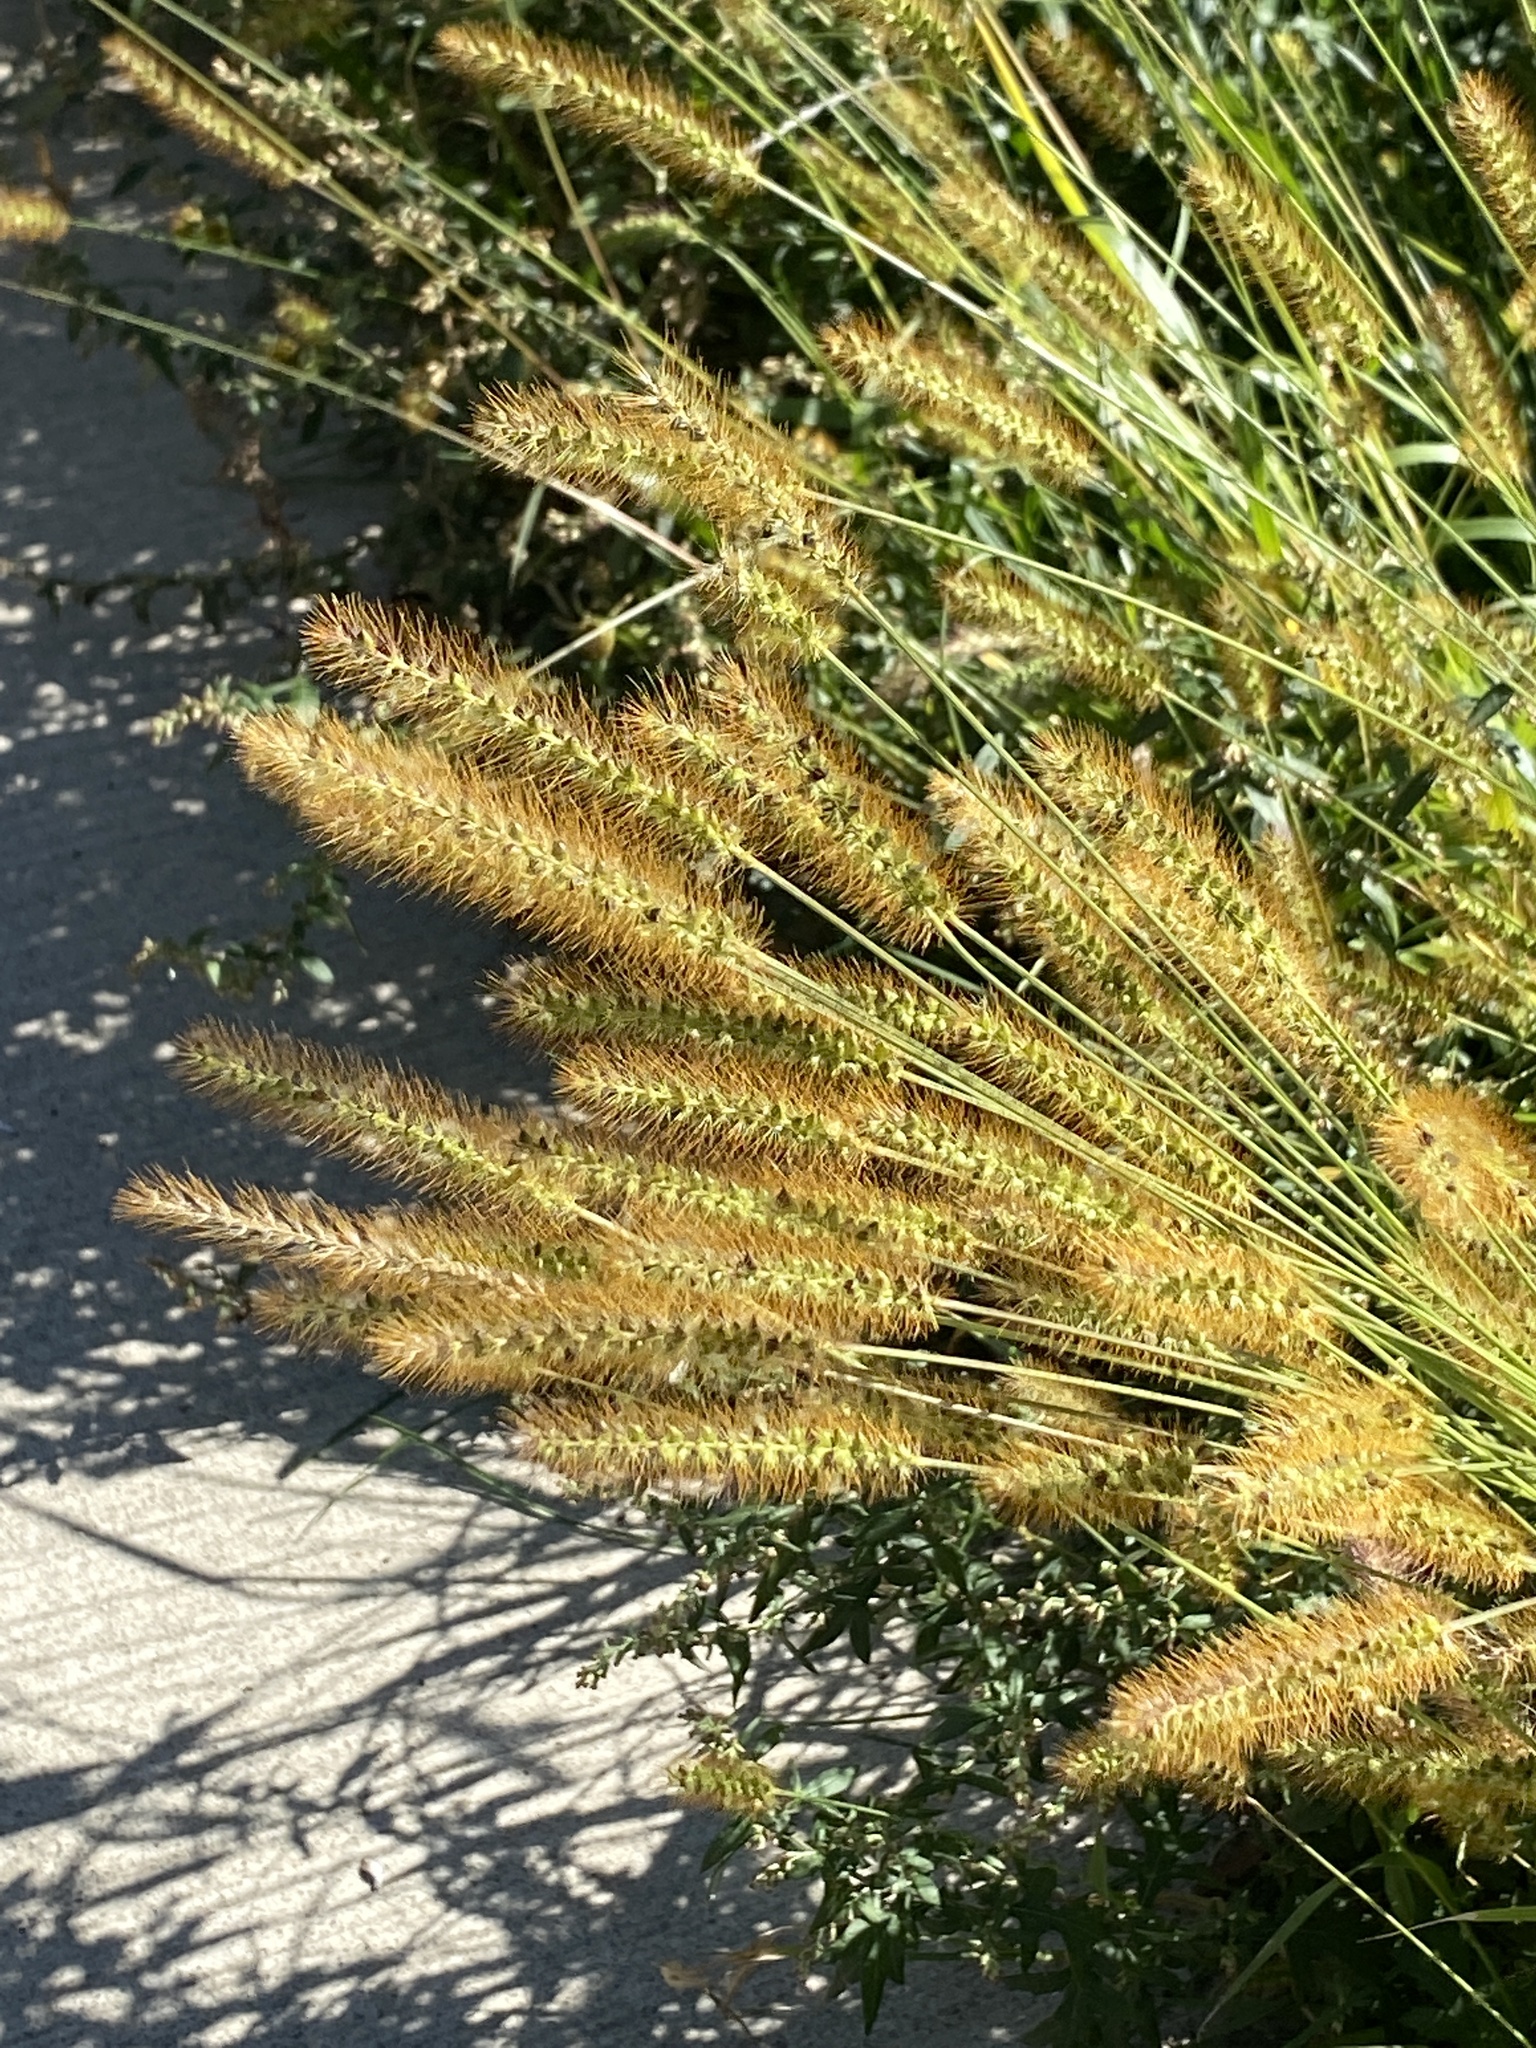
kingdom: Plantae
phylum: Tracheophyta
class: Liliopsida
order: Poales
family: Poaceae
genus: Setaria
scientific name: Setaria pumila
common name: Yellow bristle-grass
